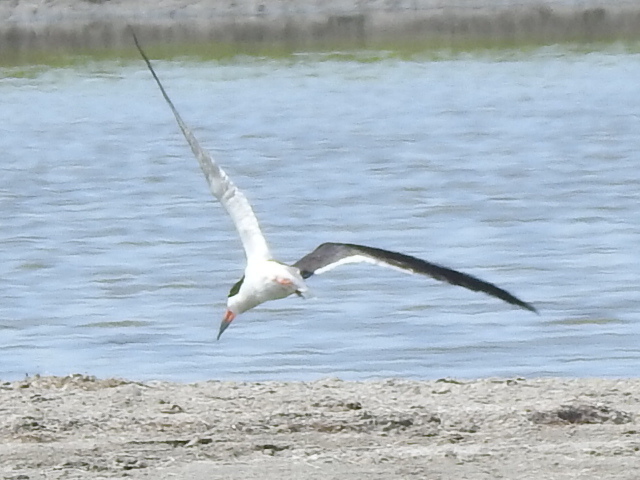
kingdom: Animalia
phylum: Chordata
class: Aves
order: Charadriiformes
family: Laridae
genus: Rynchops
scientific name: Rynchops niger
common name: Black skimmer
